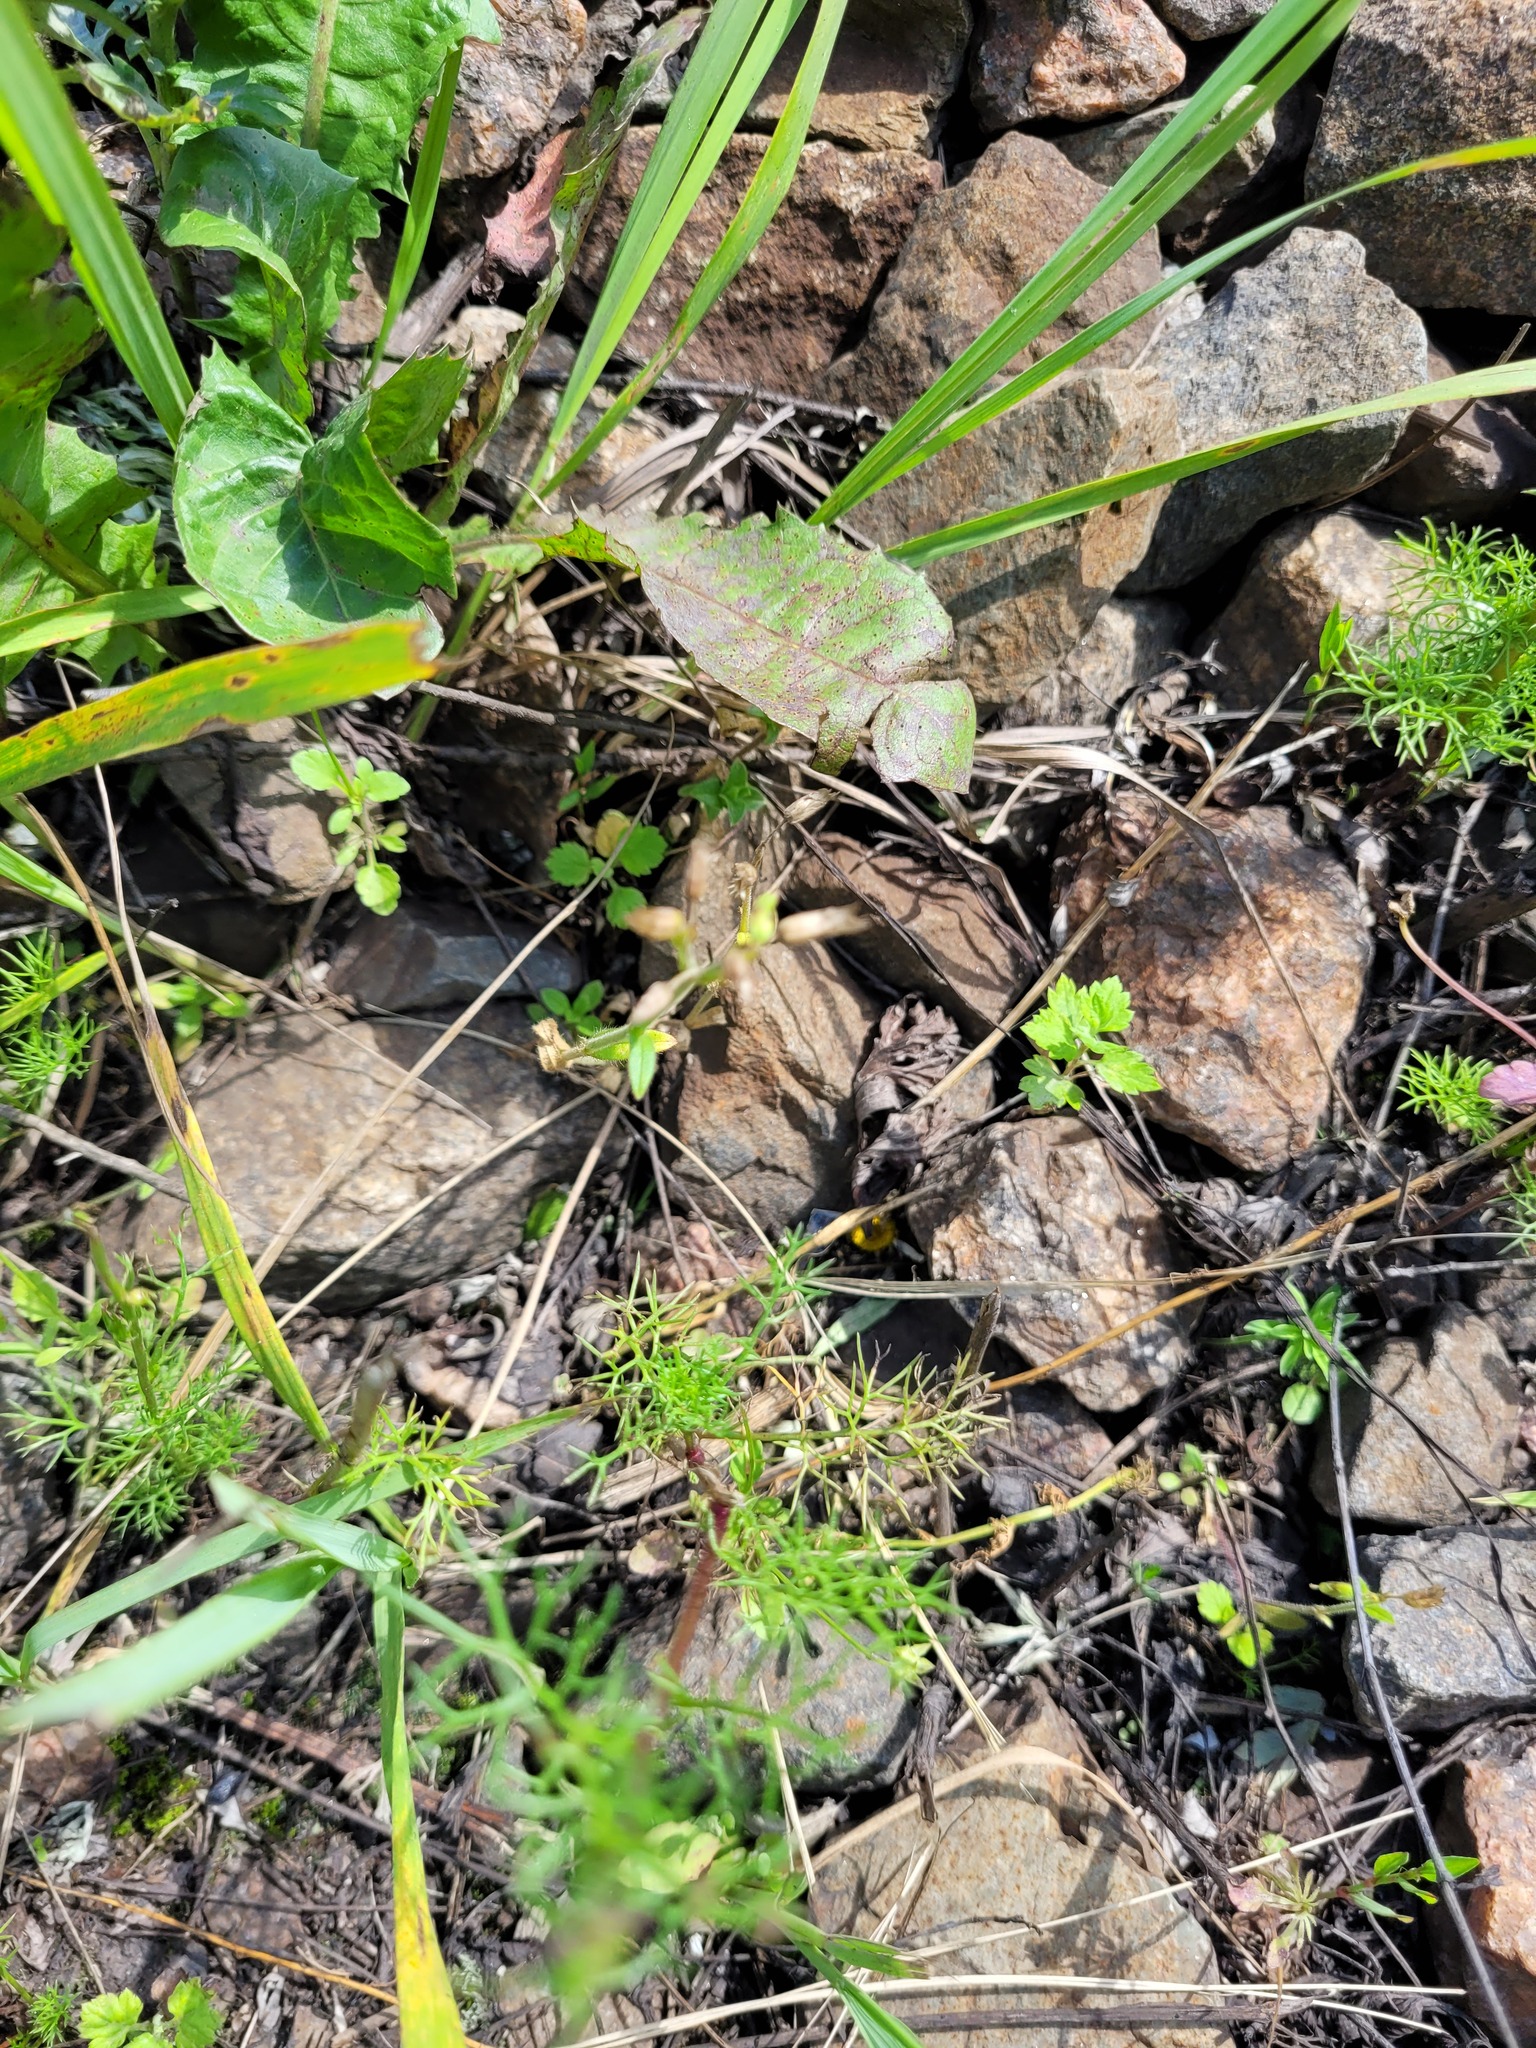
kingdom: Plantae
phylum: Tracheophyta
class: Magnoliopsida
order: Caryophyllales
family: Caryophyllaceae
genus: Cerastium
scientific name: Cerastium holosteoides
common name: Big chickweed
